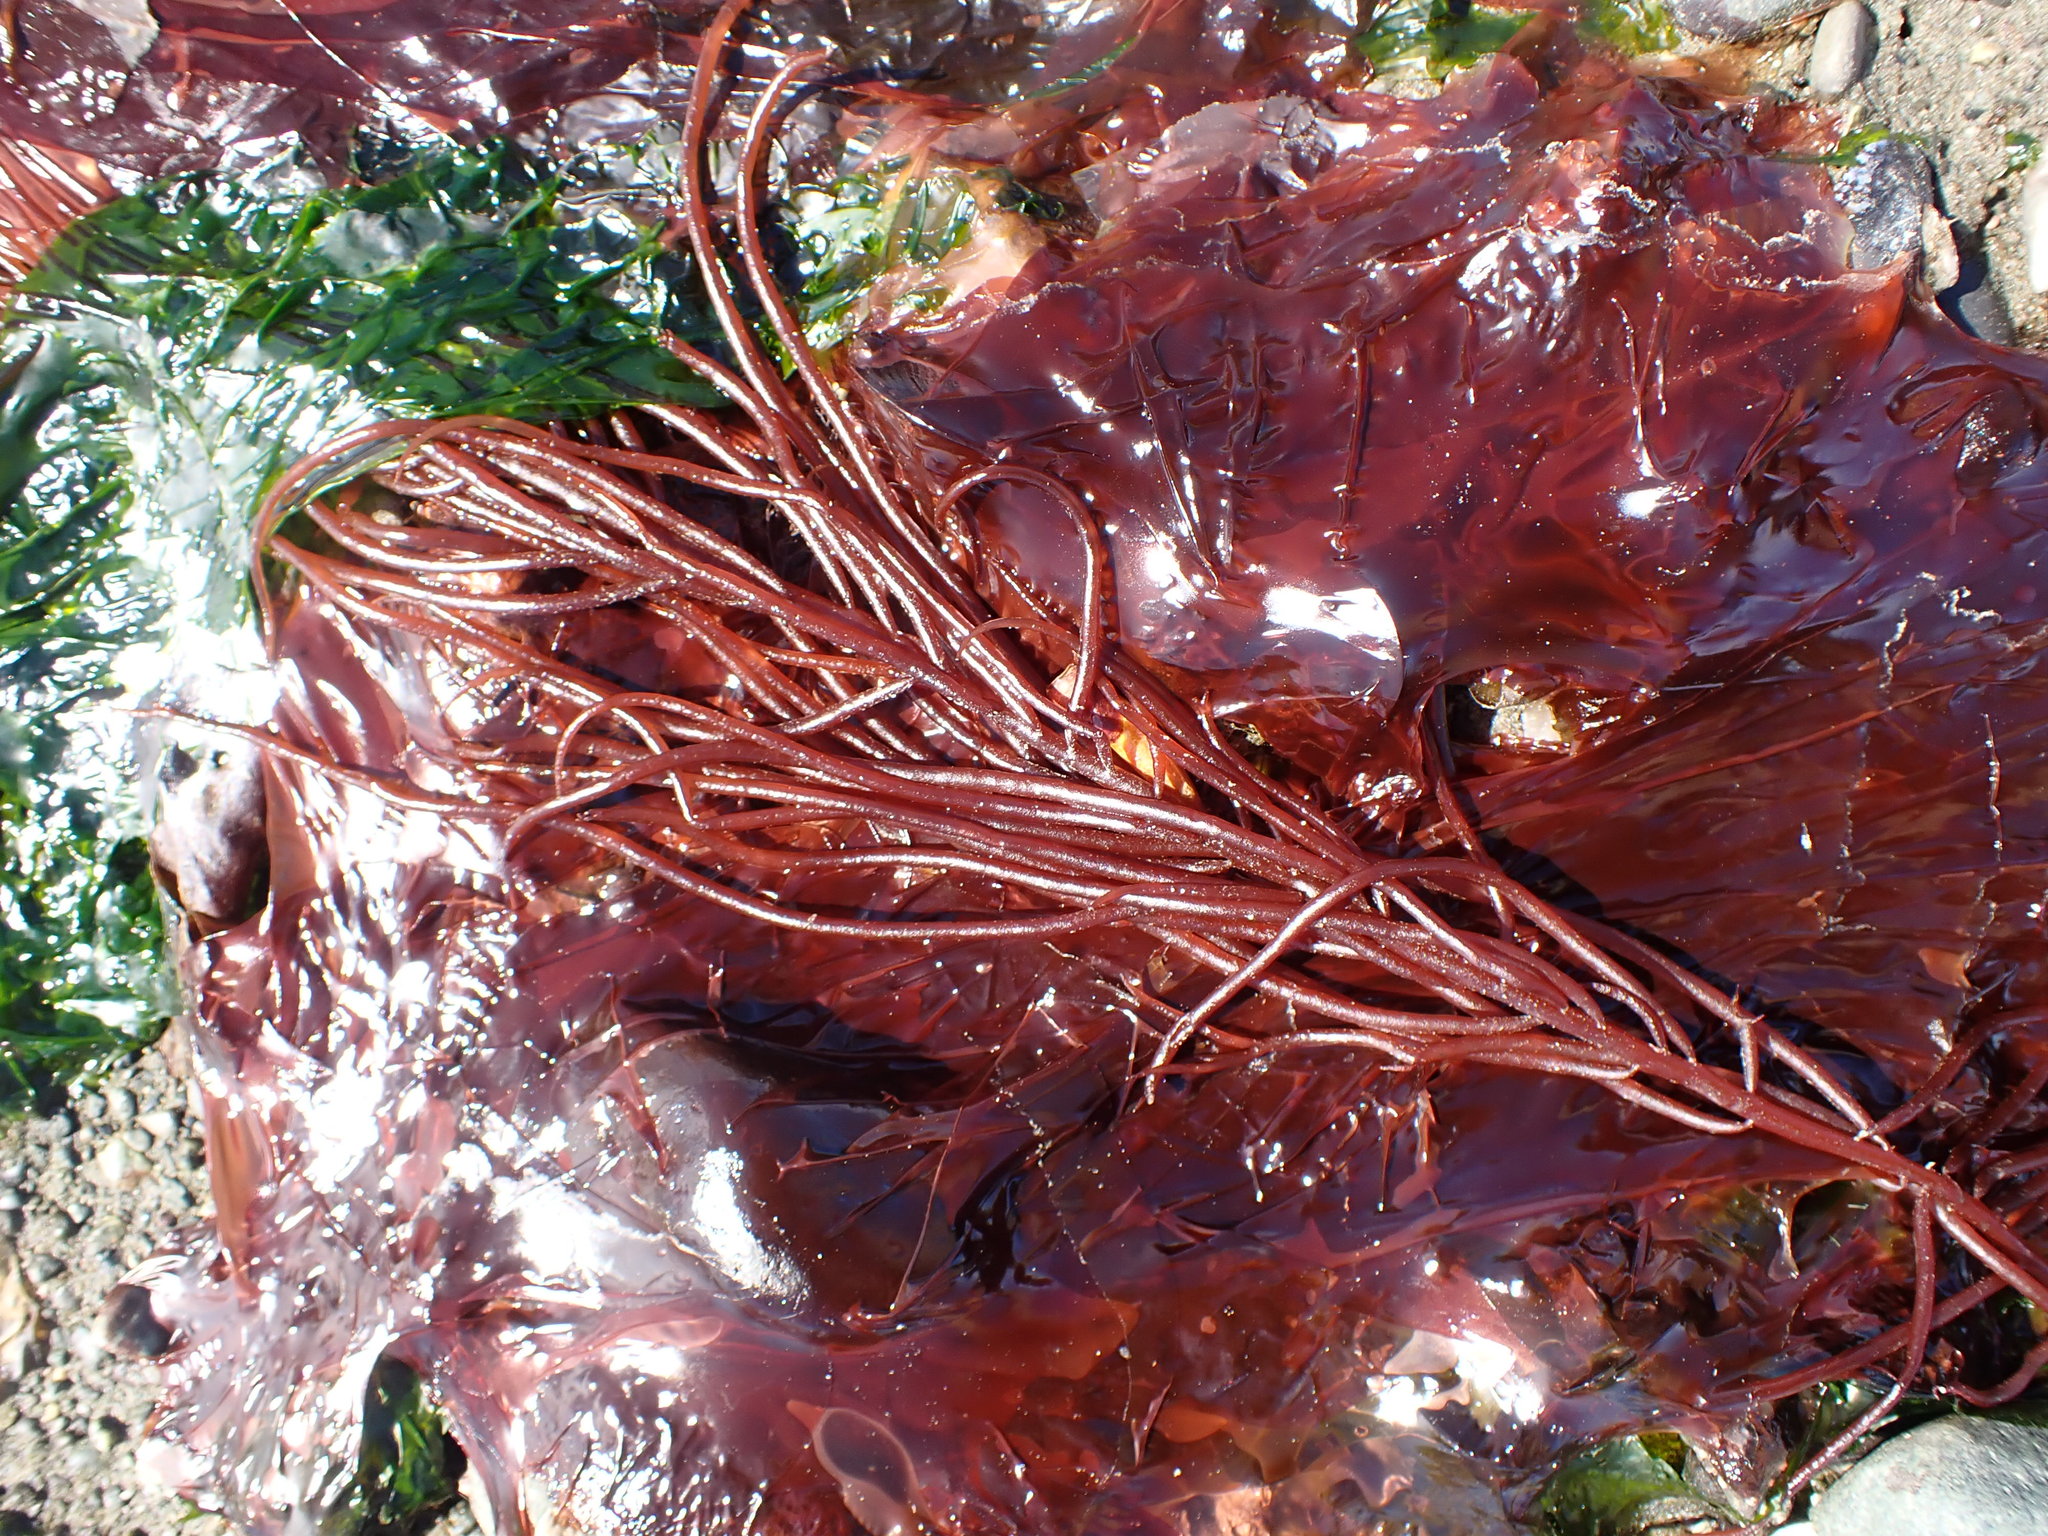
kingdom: Plantae
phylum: Rhodophyta
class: Florideophyceae
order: Gigartinales
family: Solieriaceae
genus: Sarcodiotheca
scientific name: Sarcodiotheca gaudichaudii
